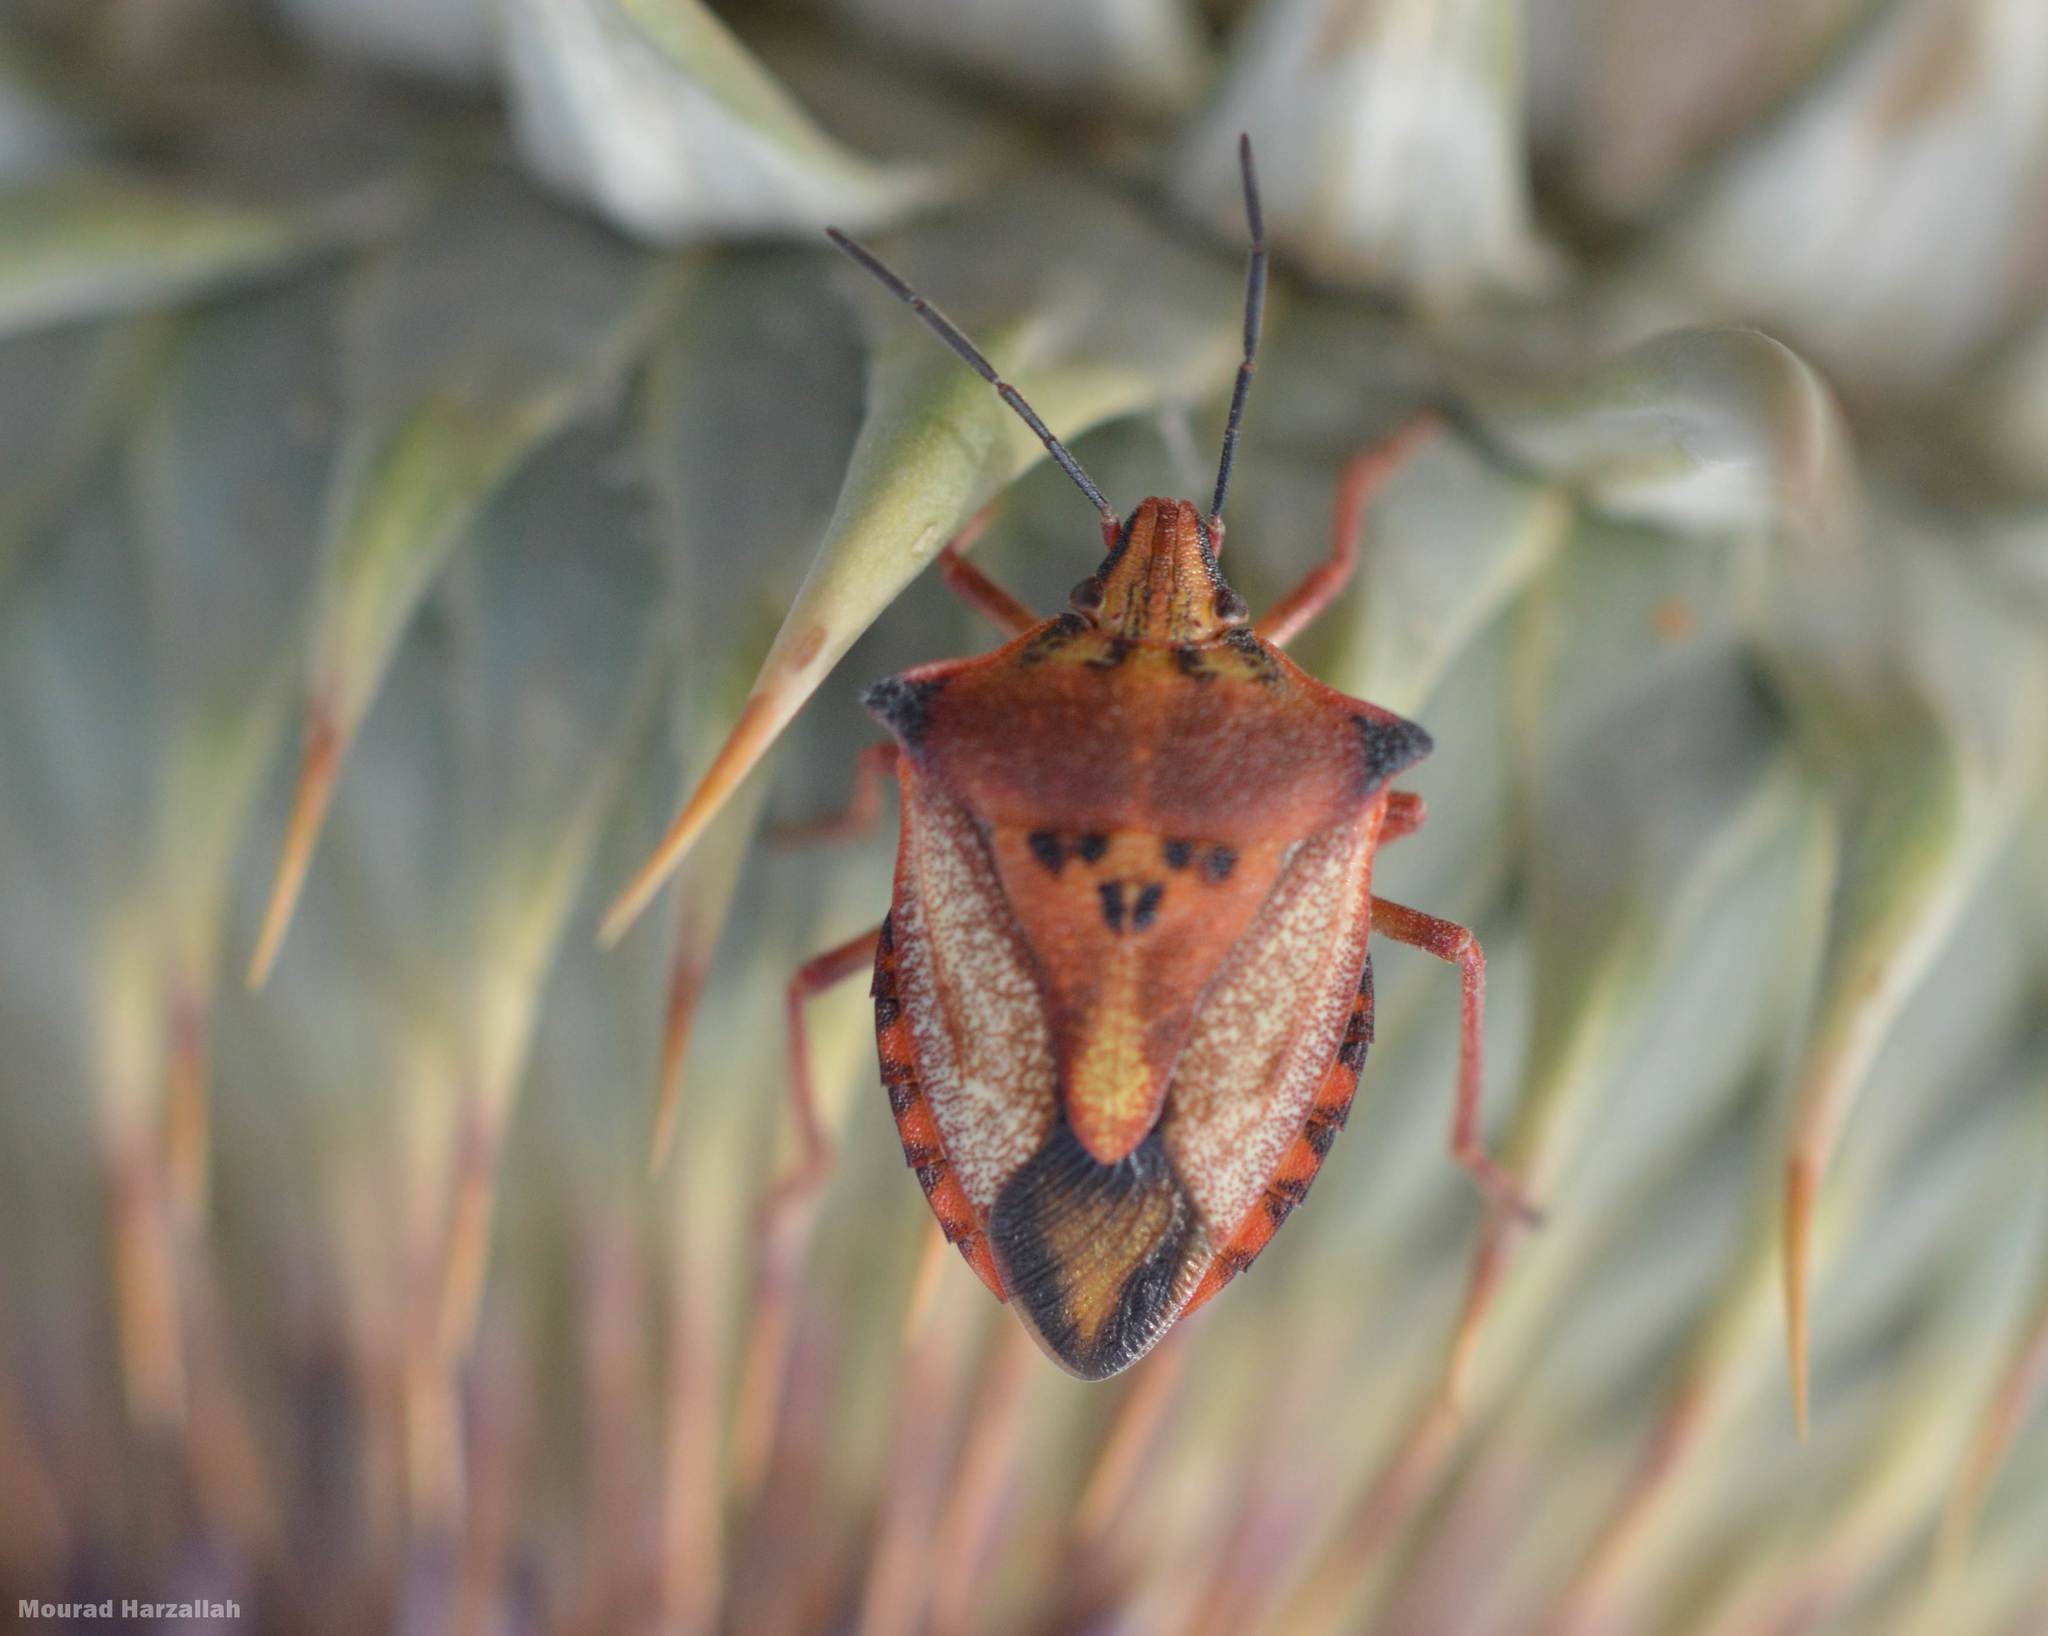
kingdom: Animalia
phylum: Arthropoda
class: Insecta
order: Hemiptera
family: Pentatomidae
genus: Carpocoris
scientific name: Carpocoris mediterraneus
